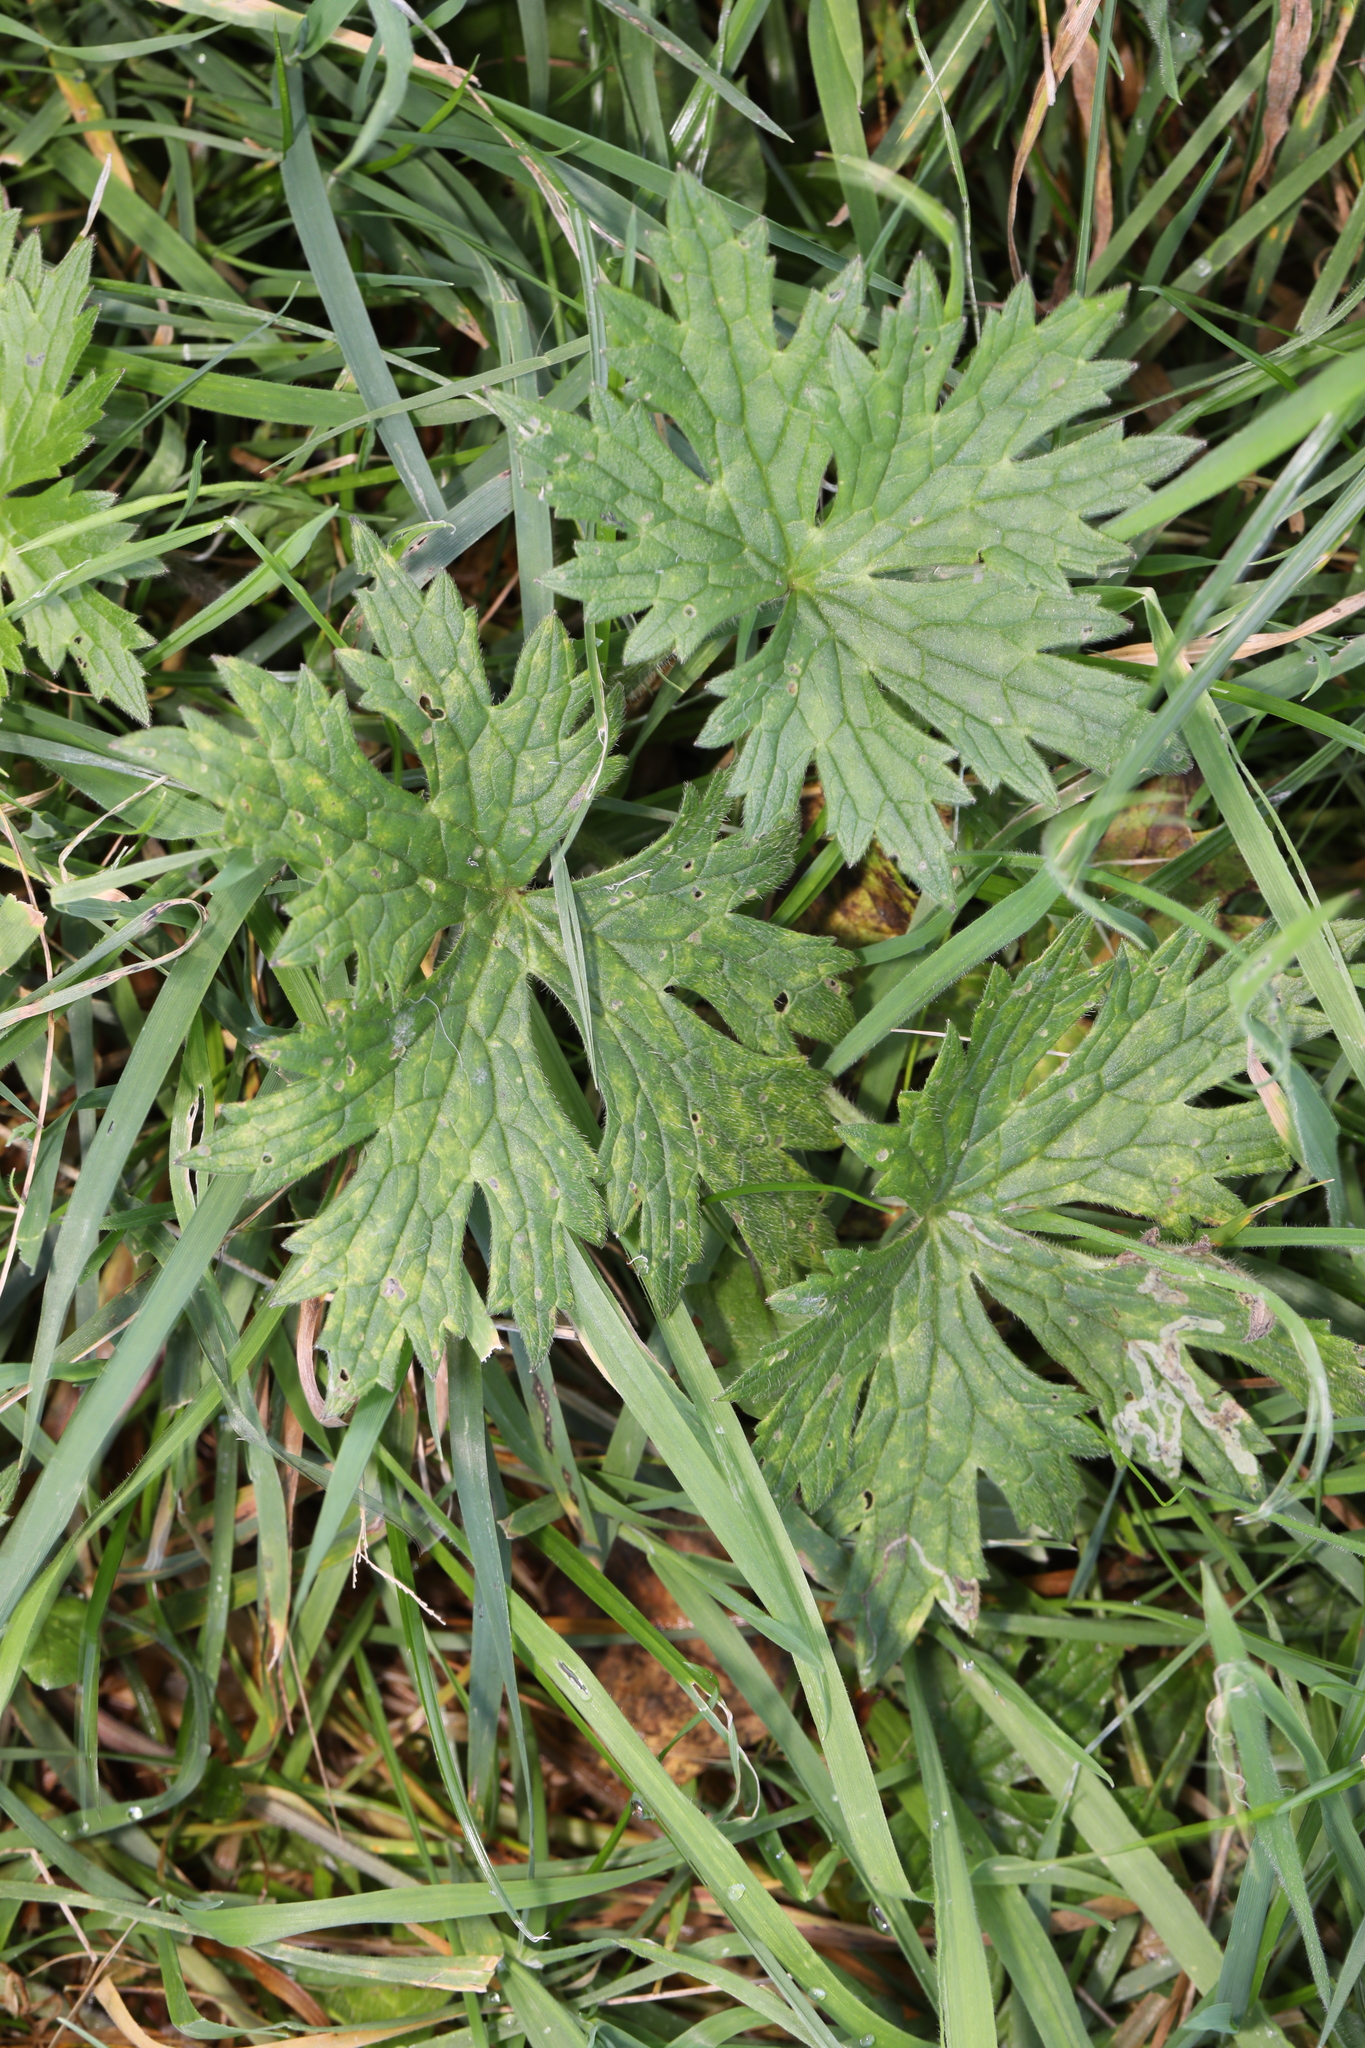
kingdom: Plantae
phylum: Tracheophyta
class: Magnoliopsida
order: Ranunculales
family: Ranunculaceae
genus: Ranunculus
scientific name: Ranunculus acris
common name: Meadow buttercup
